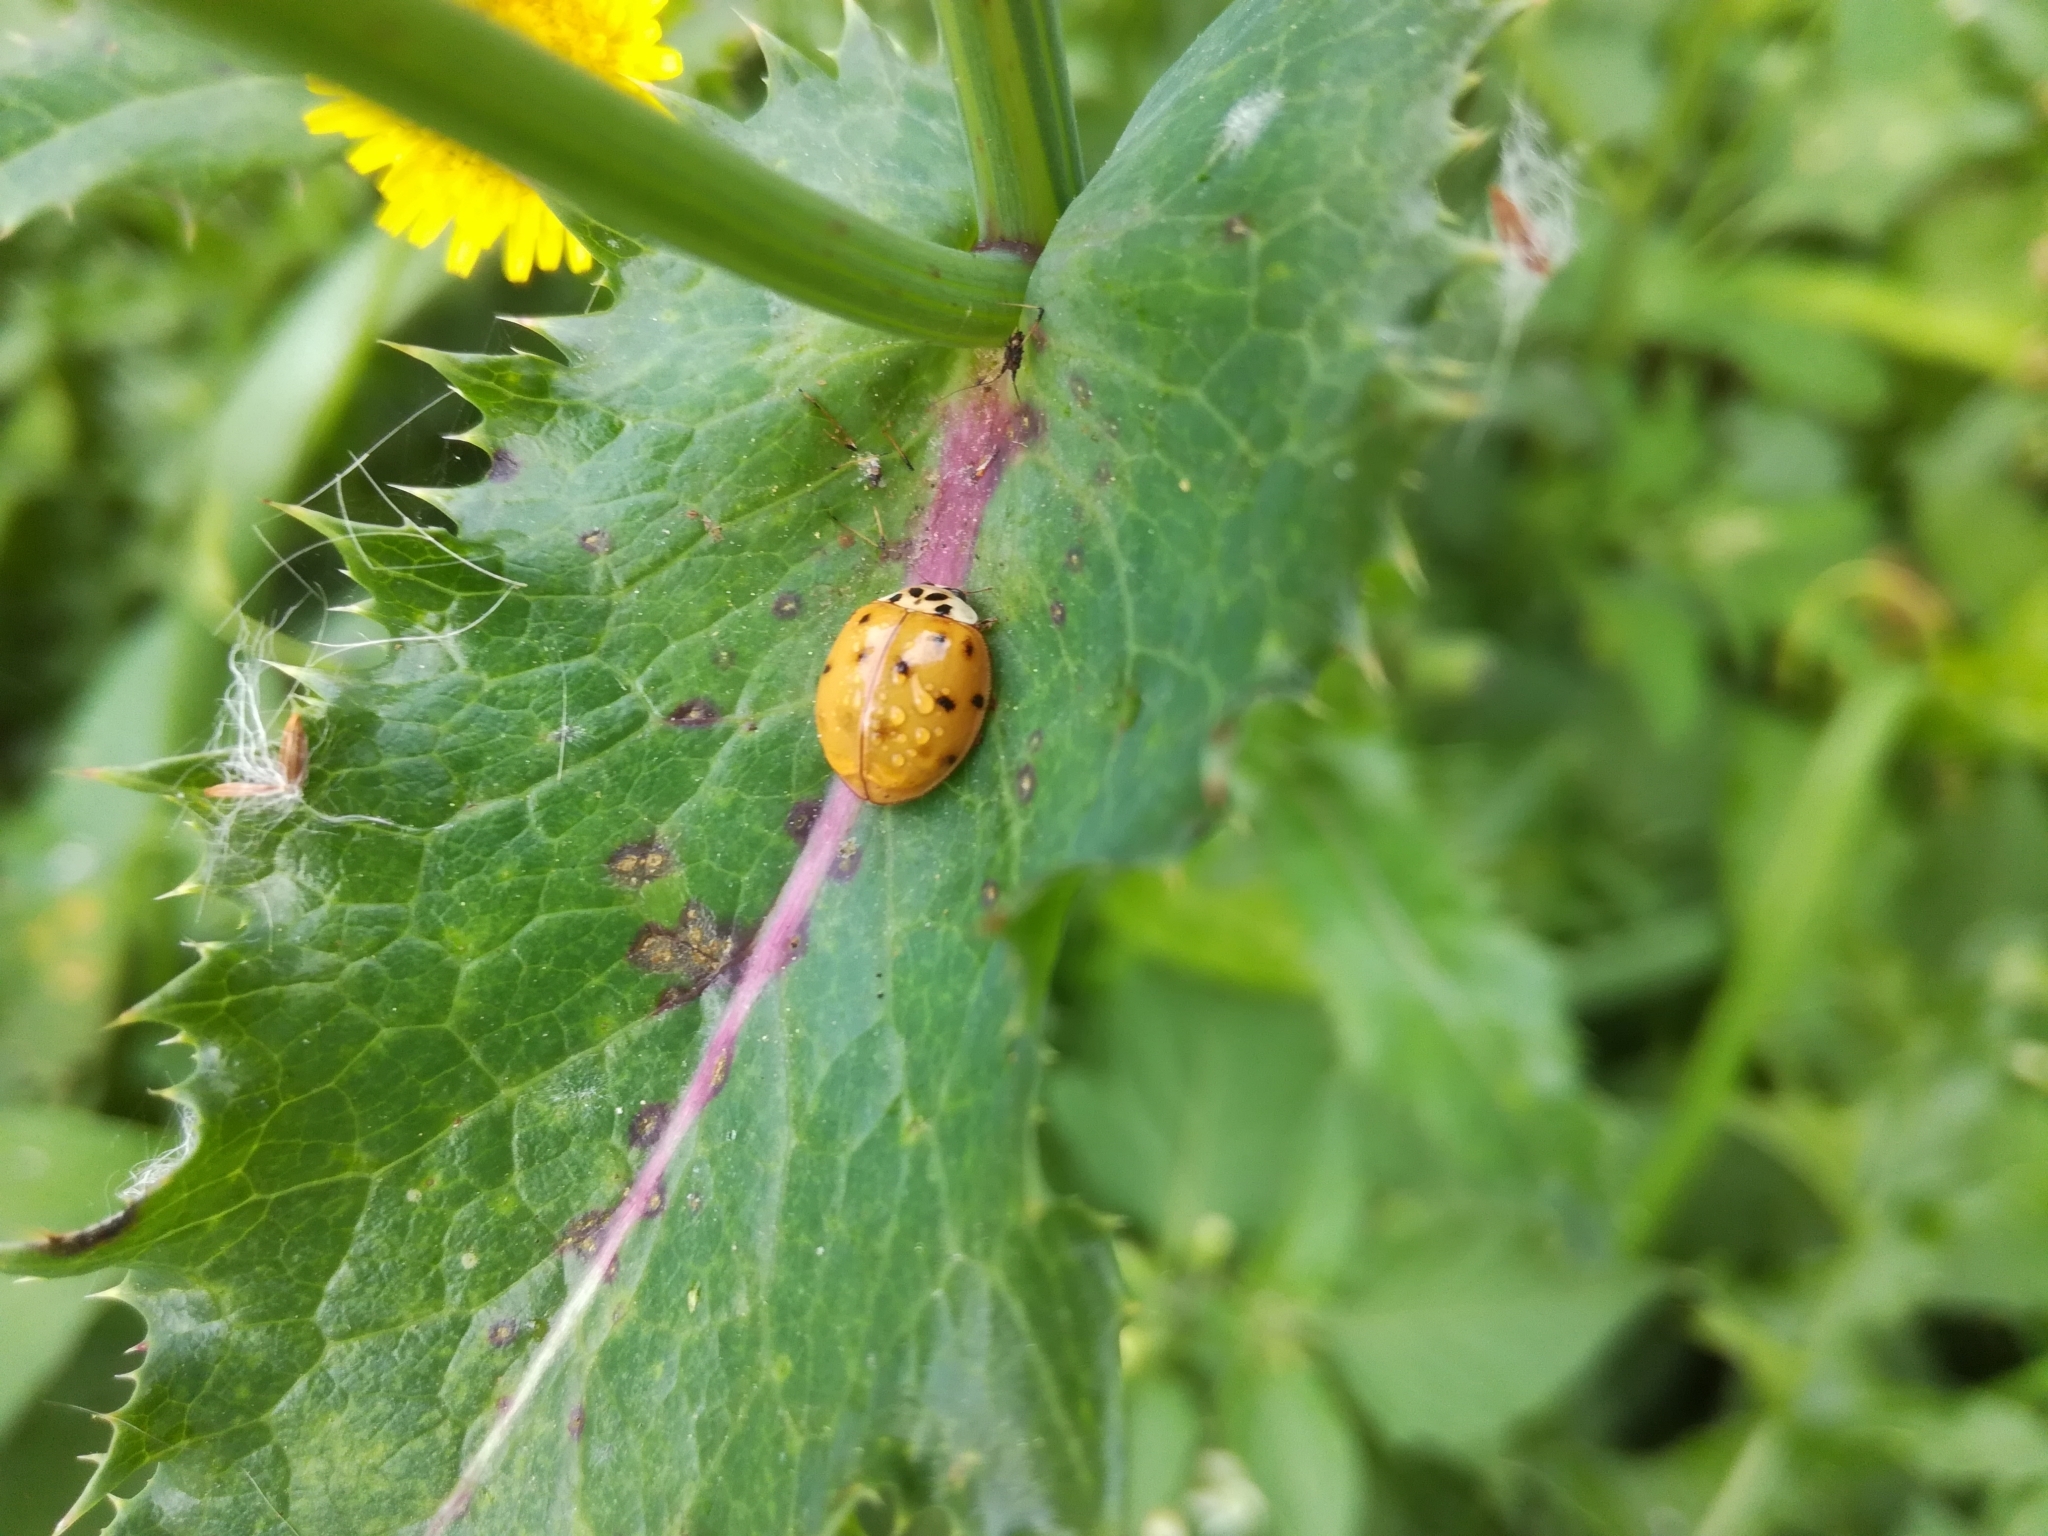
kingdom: Animalia
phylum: Arthropoda
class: Insecta
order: Coleoptera
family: Coccinellidae
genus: Harmonia
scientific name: Harmonia axyridis
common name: Harlequin ladybird
